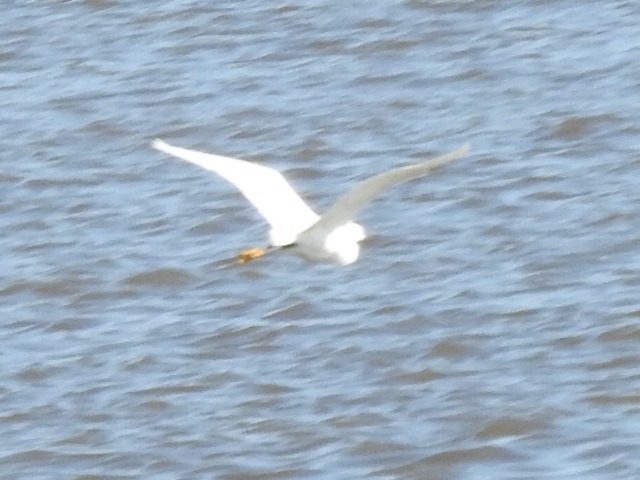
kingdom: Animalia
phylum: Chordata
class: Aves
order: Pelecaniformes
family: Ardeidae
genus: Egretta
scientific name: Egretta thula
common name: Snowy egret
